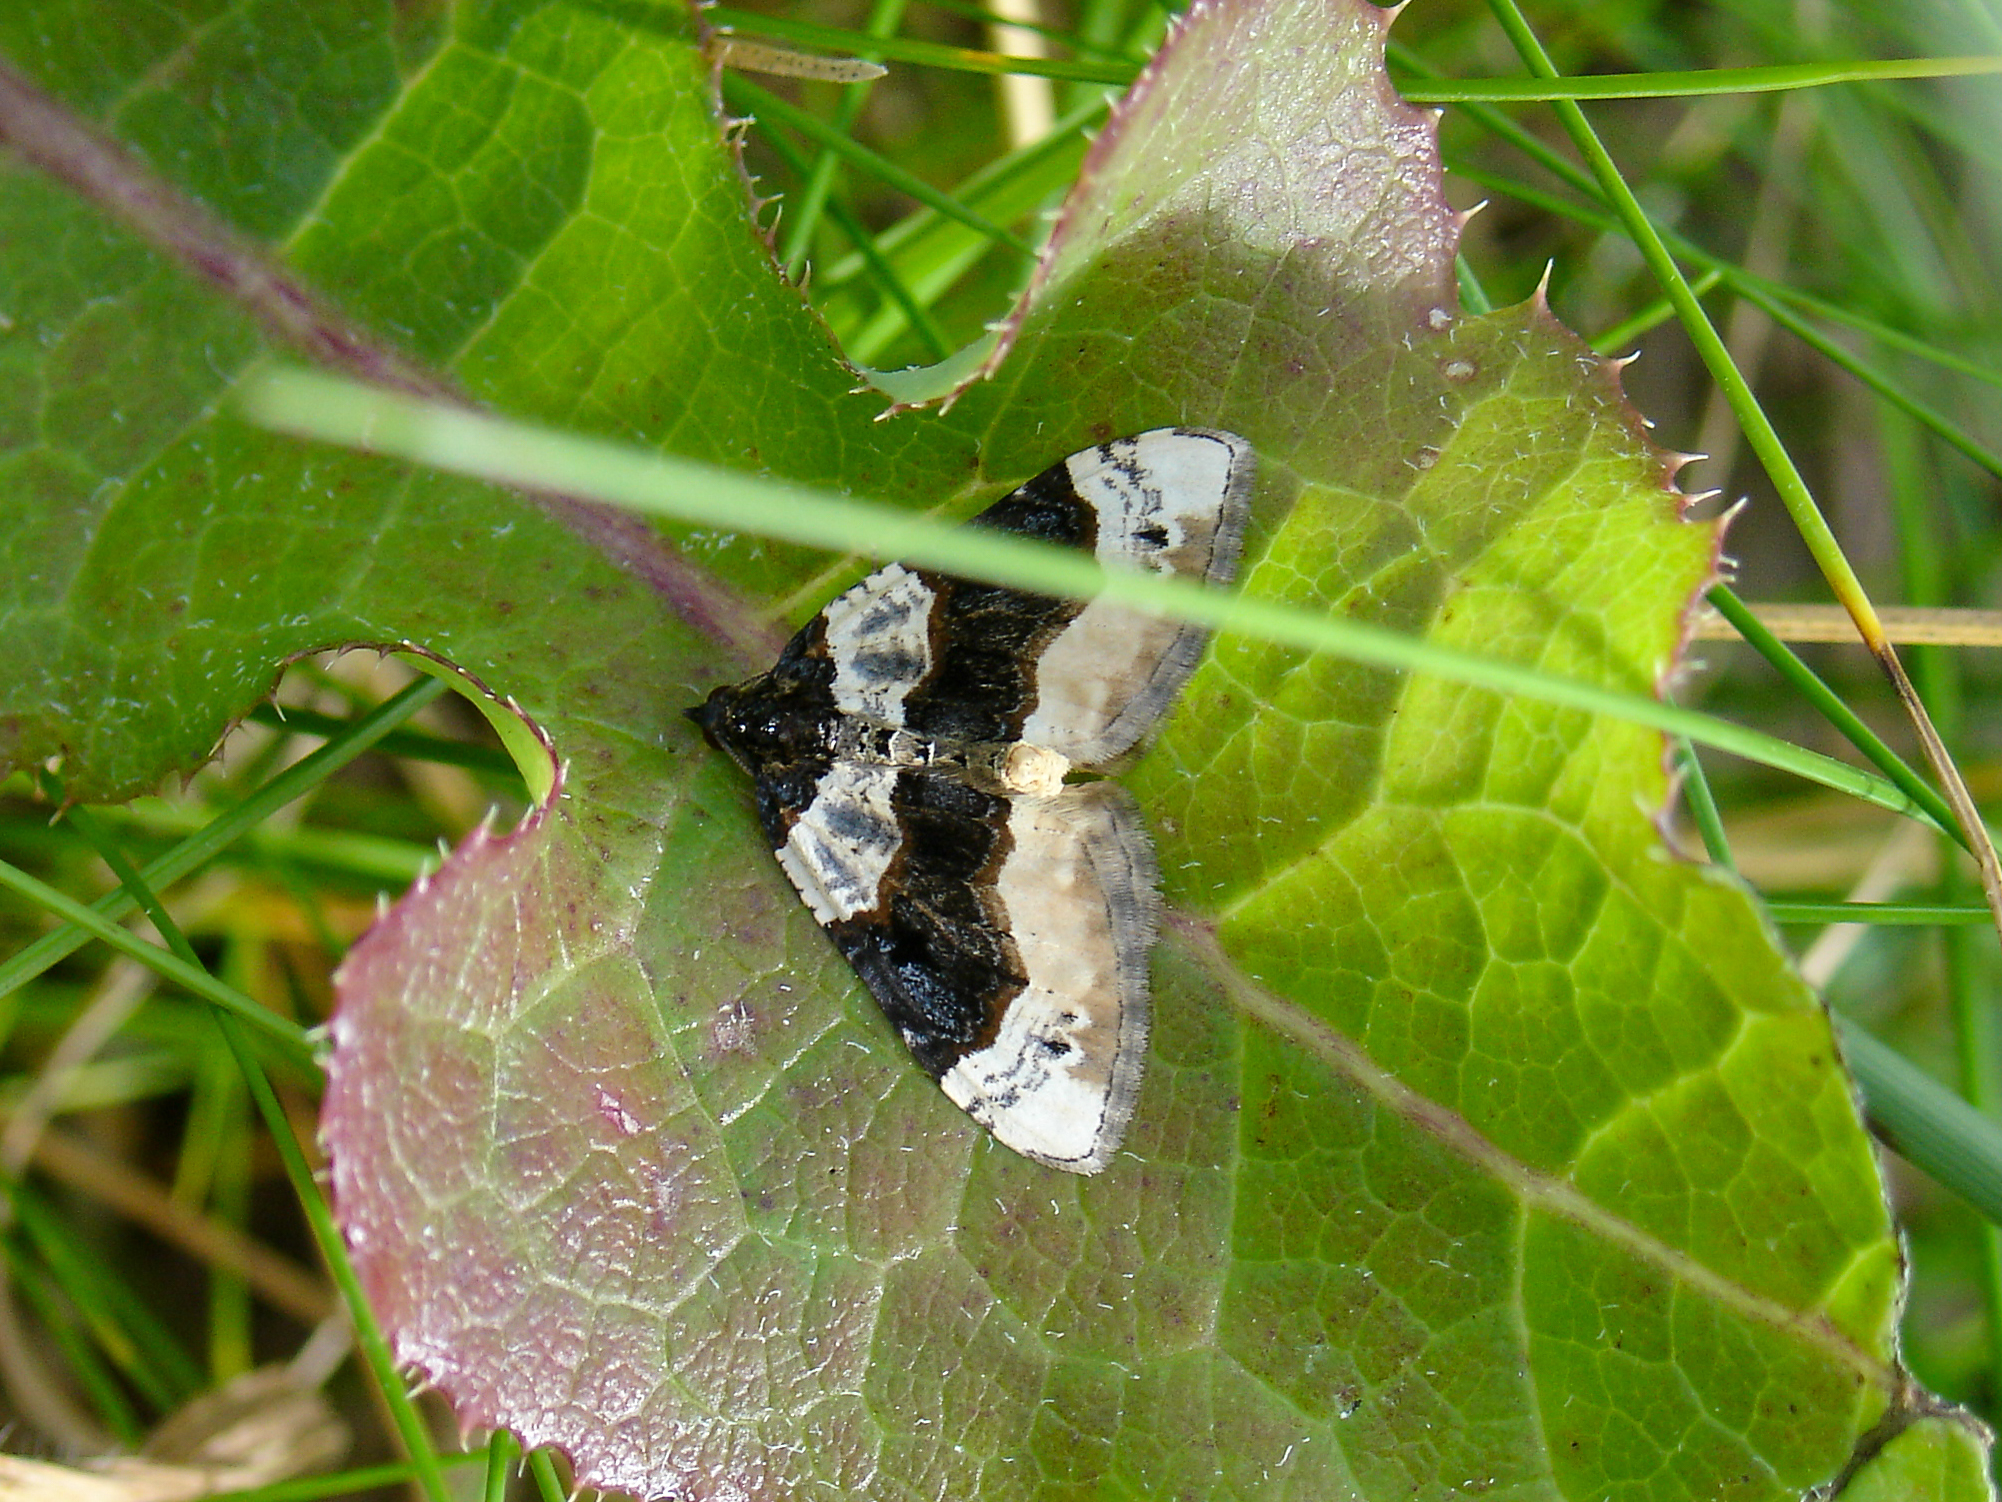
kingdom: Animalia
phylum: Arthropoda
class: Insecta
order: Lepidoptera
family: Geometridae
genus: Cosmorhoe
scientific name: Cosmorhoe ocellata
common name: Purple bar
